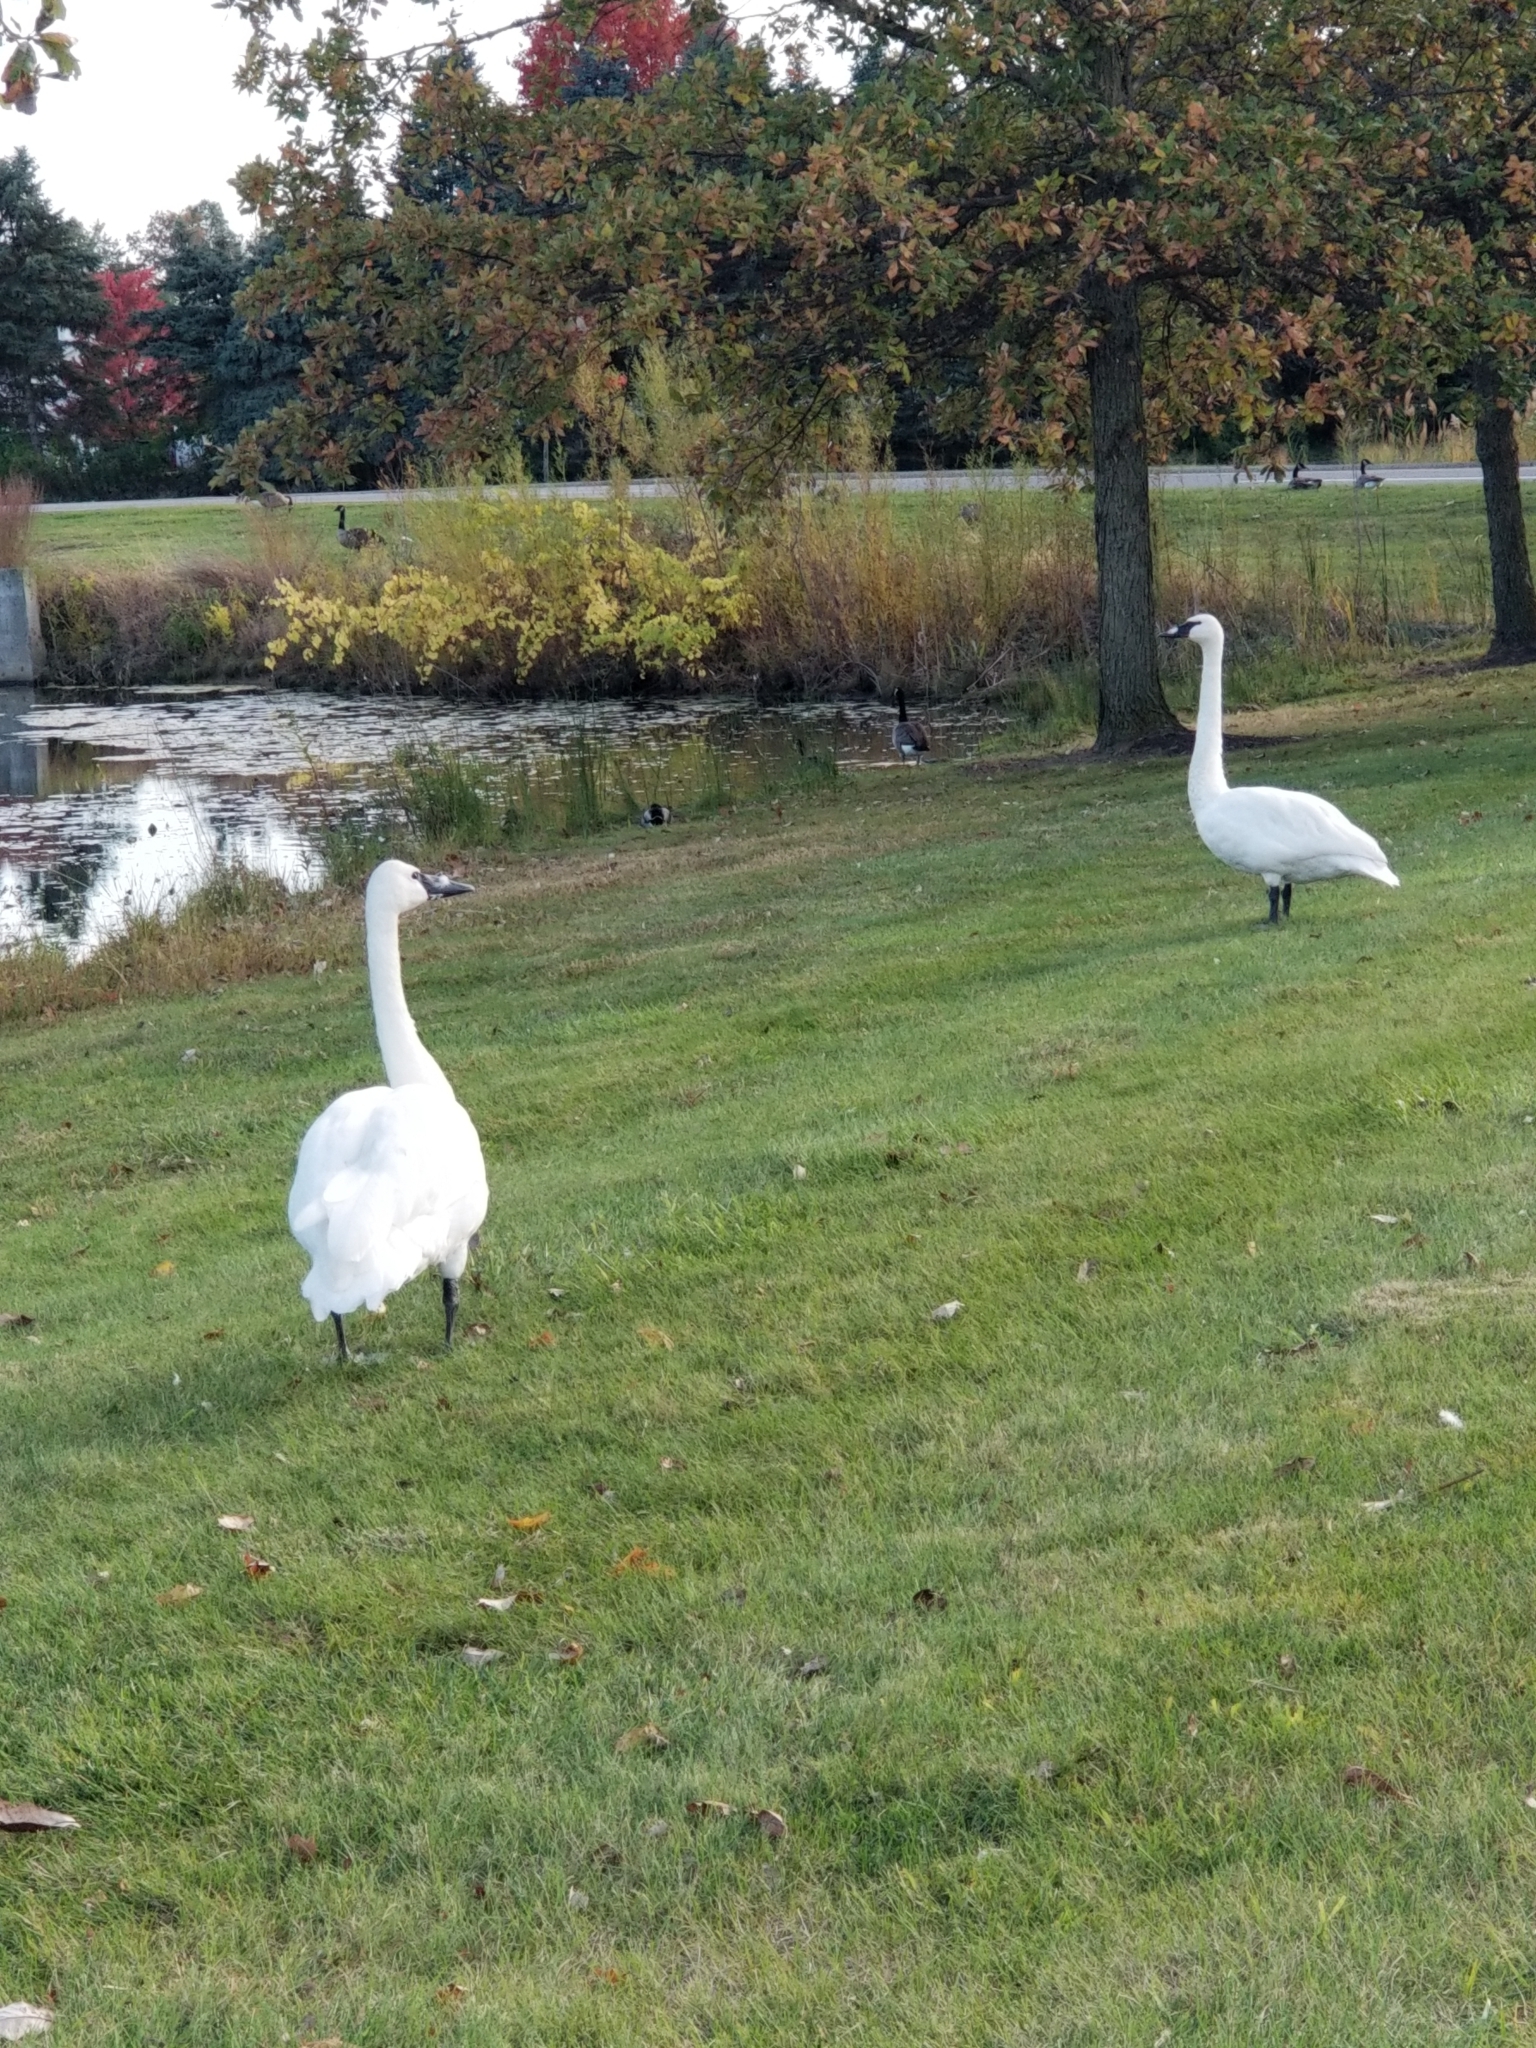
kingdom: Animalia
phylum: Chordata
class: Aves
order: Anseriformes
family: Anatidae
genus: Cygnus
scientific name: Cygnus buccinator
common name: Trumpeter swan
